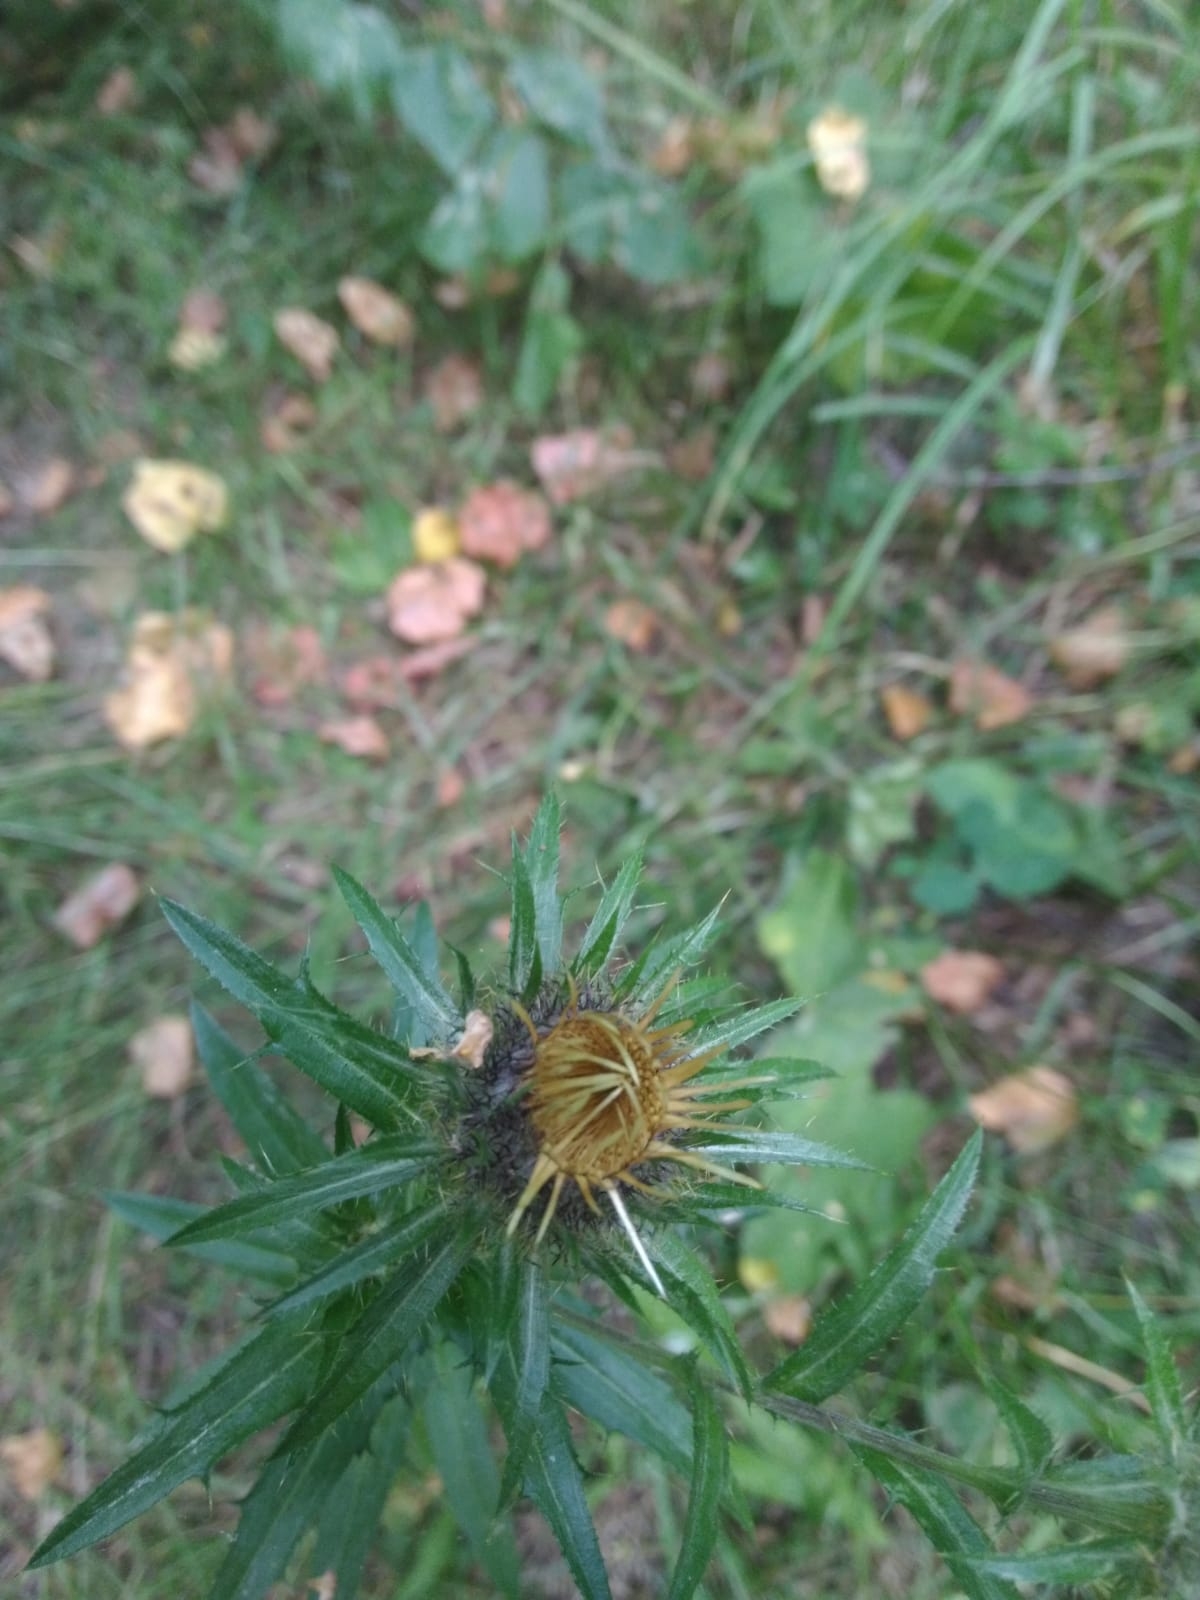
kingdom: Plantae
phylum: Tracheophyta
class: Magnoliopsida
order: Asterales
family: Asteraceae
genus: Carlina
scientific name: Carlina biebersteinii
